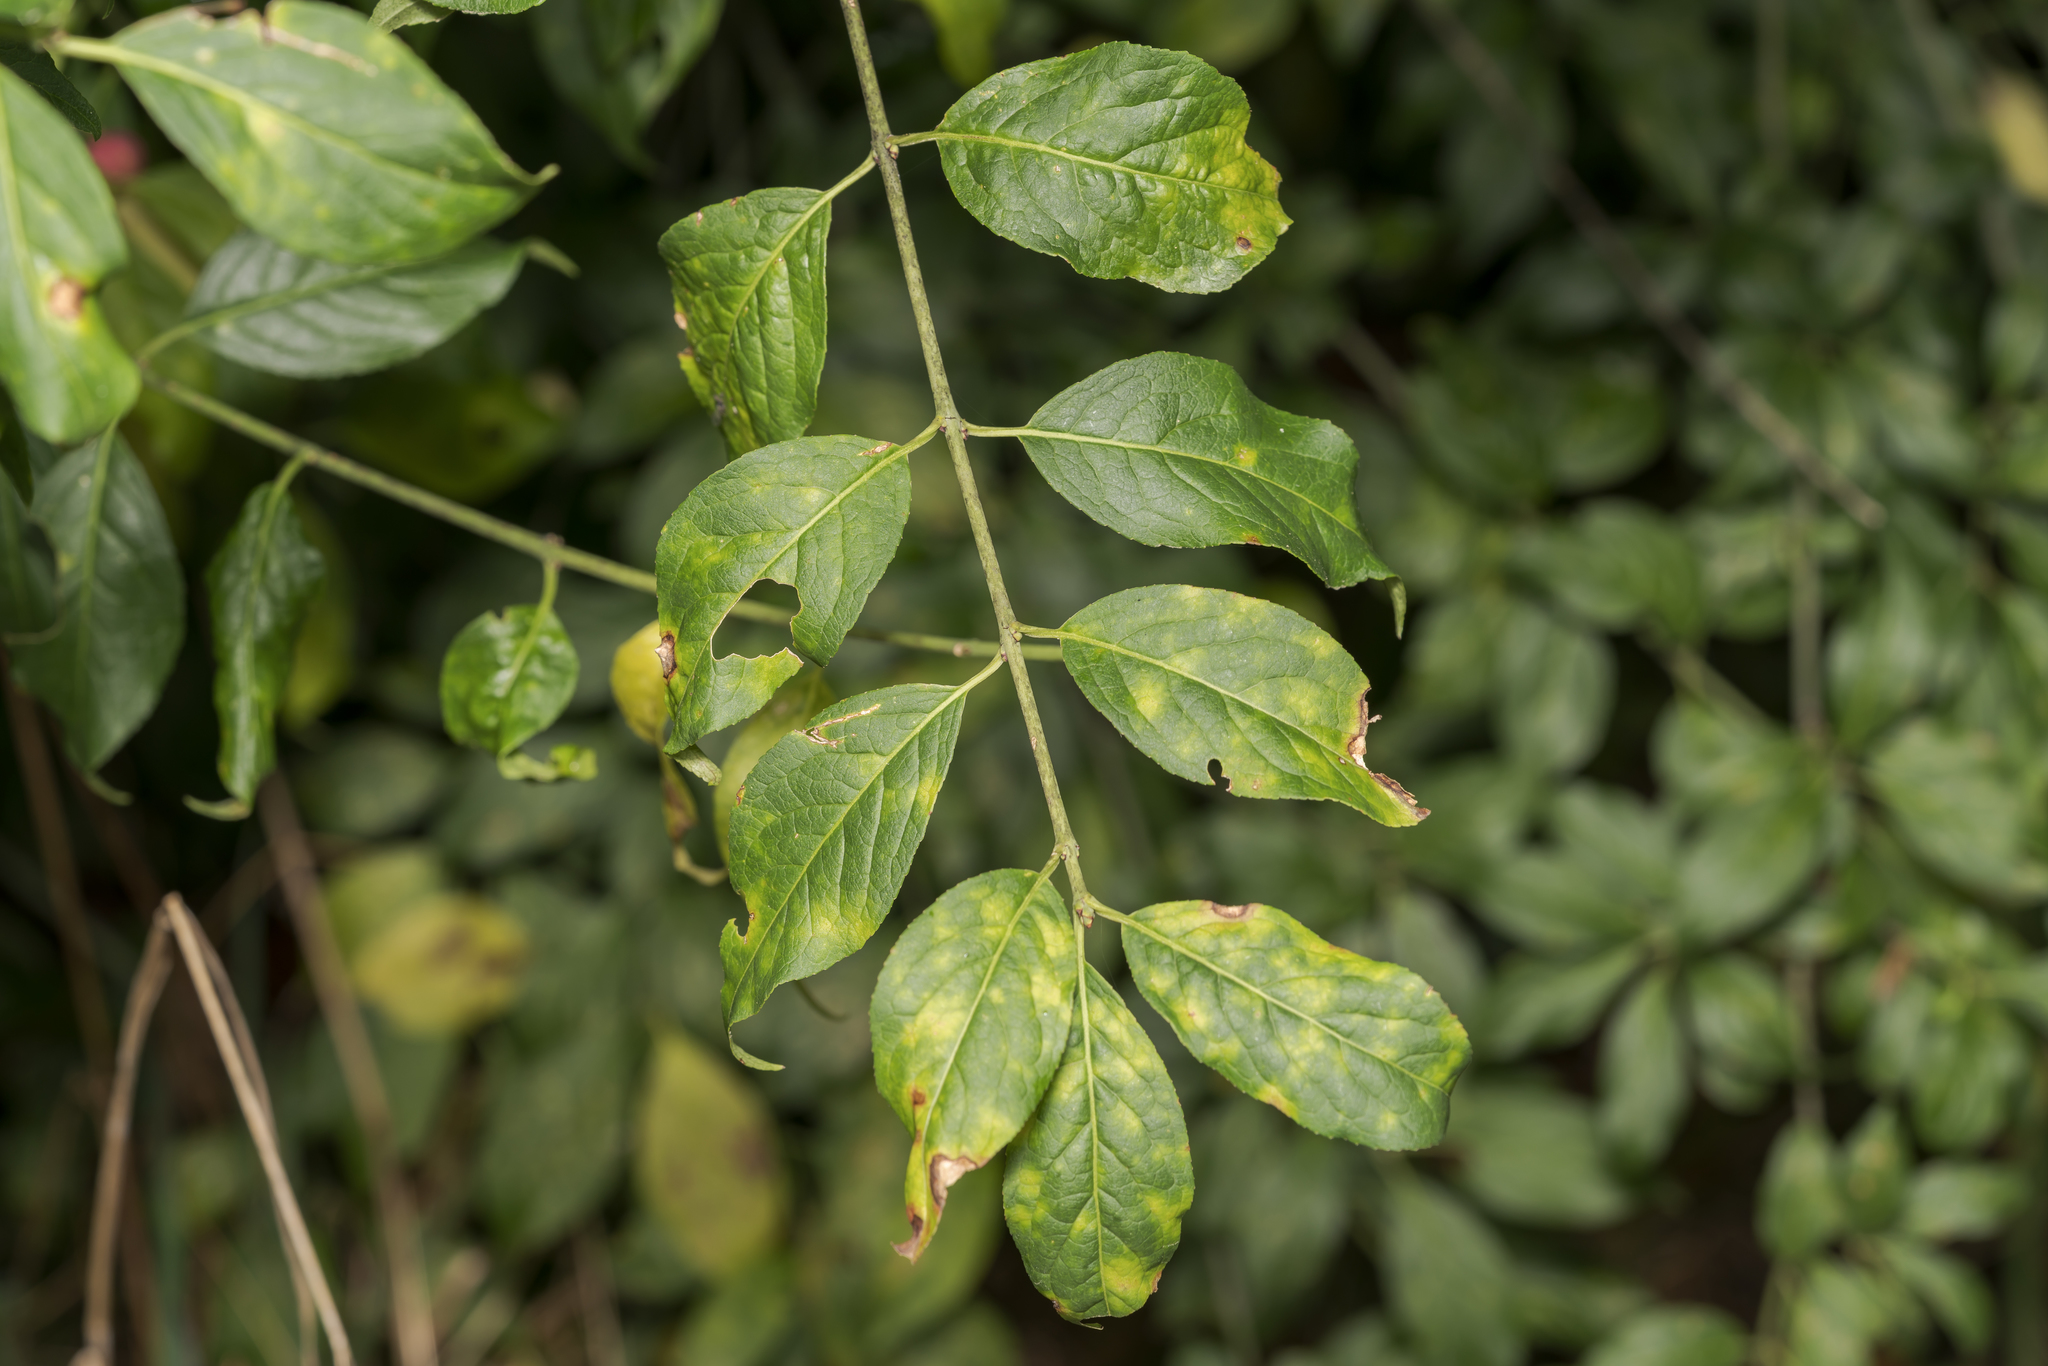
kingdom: Plantae
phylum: Tracheophyta
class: Magnoliopsida
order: Celastrales
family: Celastraceae
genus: Euonymus
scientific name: Euonymus europaeus
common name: Spindle
